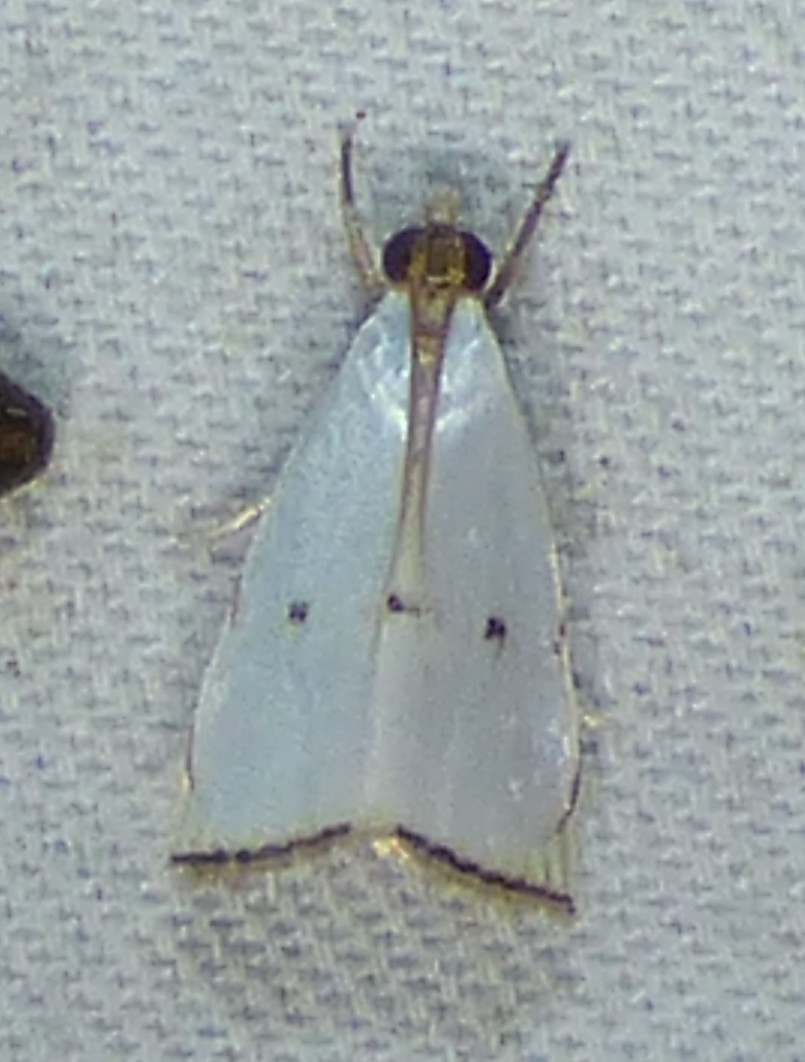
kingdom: Animalia
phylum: Arthropoda
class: Insecta
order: Lepidoptera
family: Crambidae
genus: Argyria
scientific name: Argyria pusillalis
